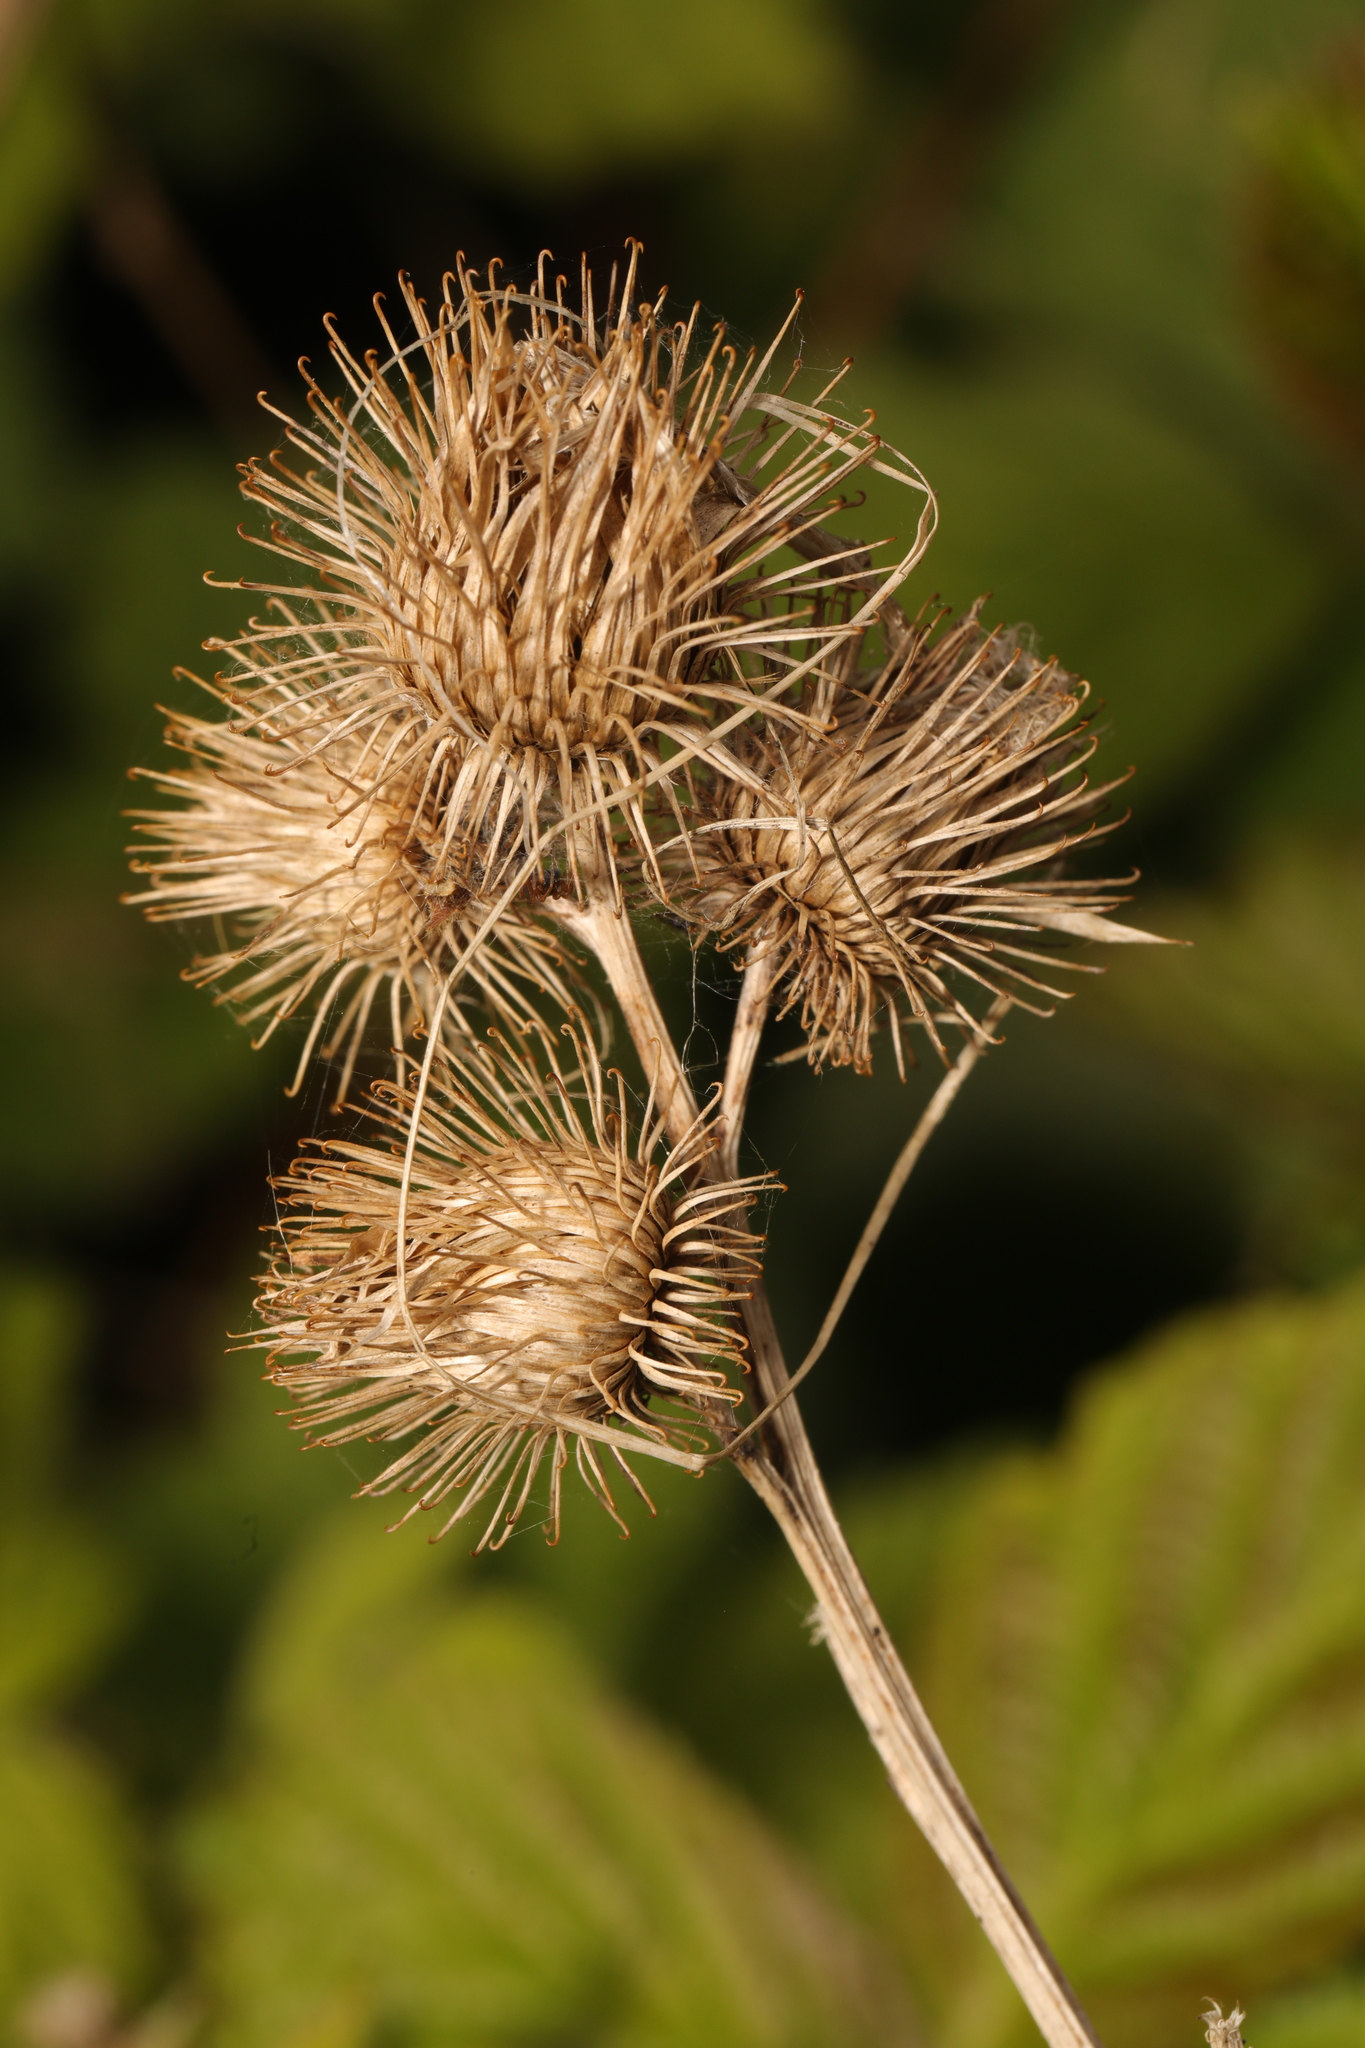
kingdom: Plantae
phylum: Tracheophyta
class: Magnoliopsida
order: Asterales
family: Asteraceae
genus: Arctium
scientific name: Arctium minus
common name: Lesser burdock
